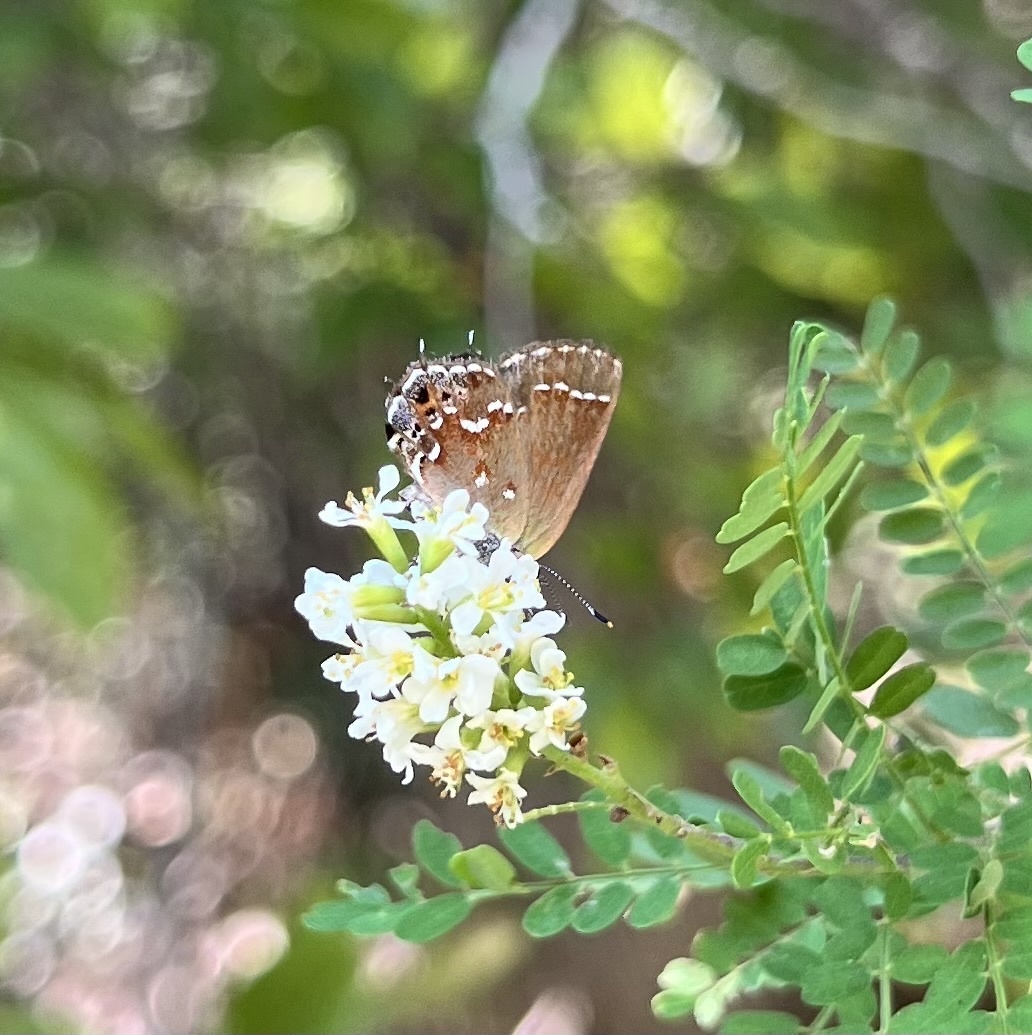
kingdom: Animalia
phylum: Arthropoda
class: Insecta
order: Lepidoptera
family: Lycaenidae
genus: Mitoura
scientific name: Mitoura gryneus
